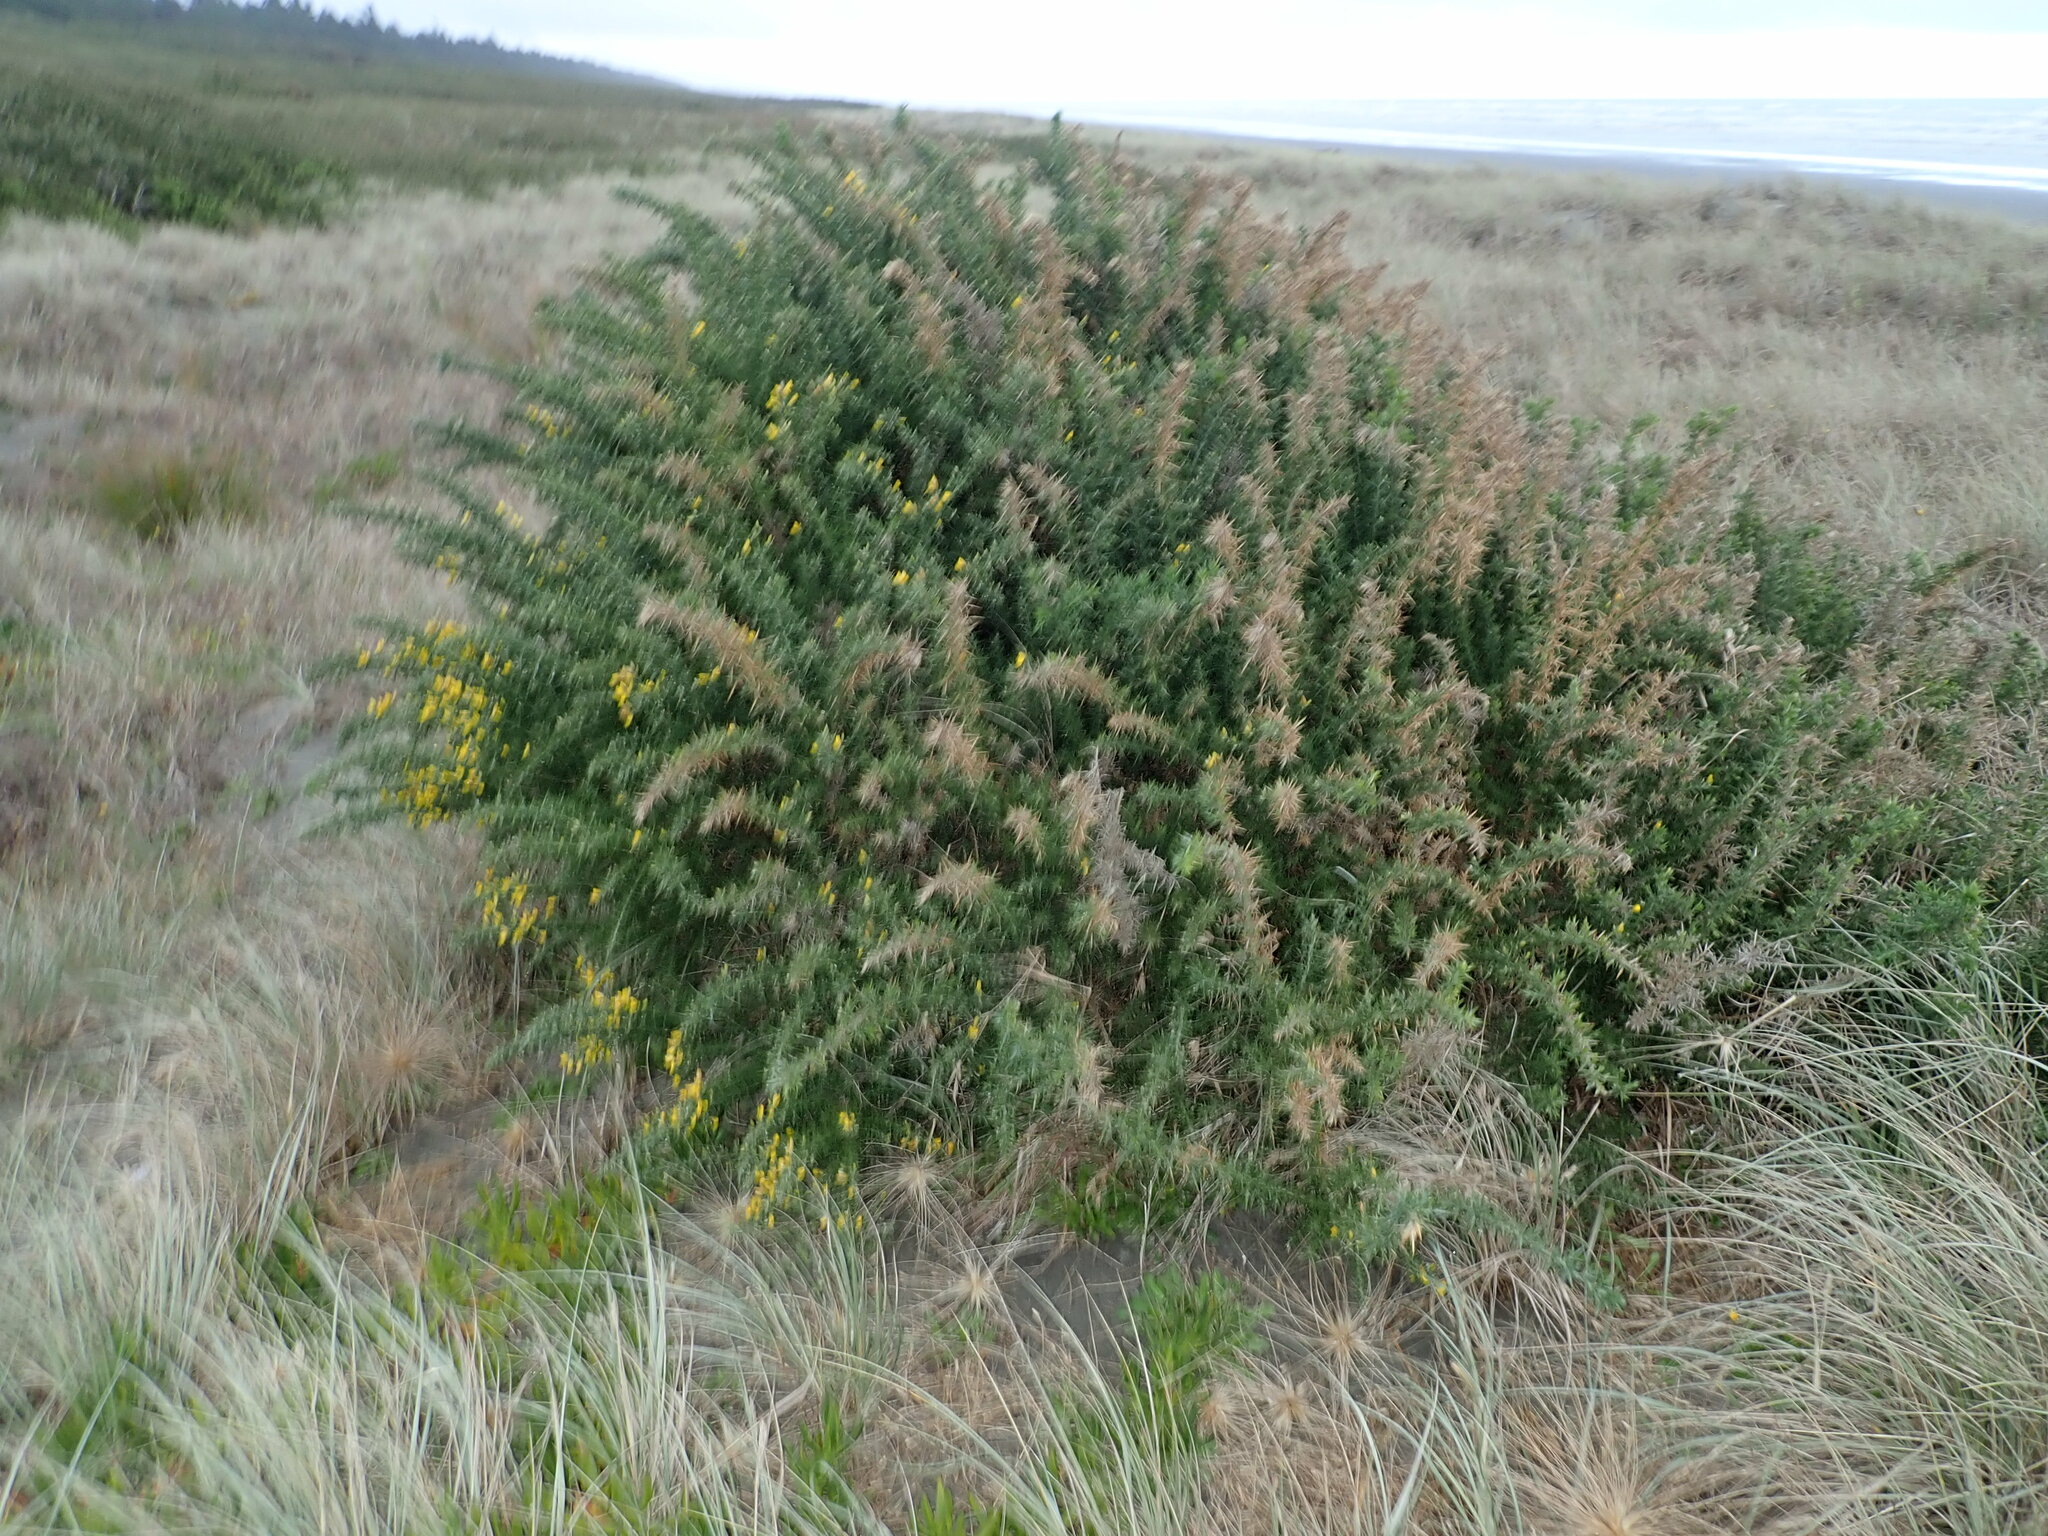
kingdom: Plantae
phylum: Tracheophyta
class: Magnoliopsida
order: Fabales
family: Fabaceae
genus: Ulex
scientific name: Ulex europaeus
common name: Common gorse
